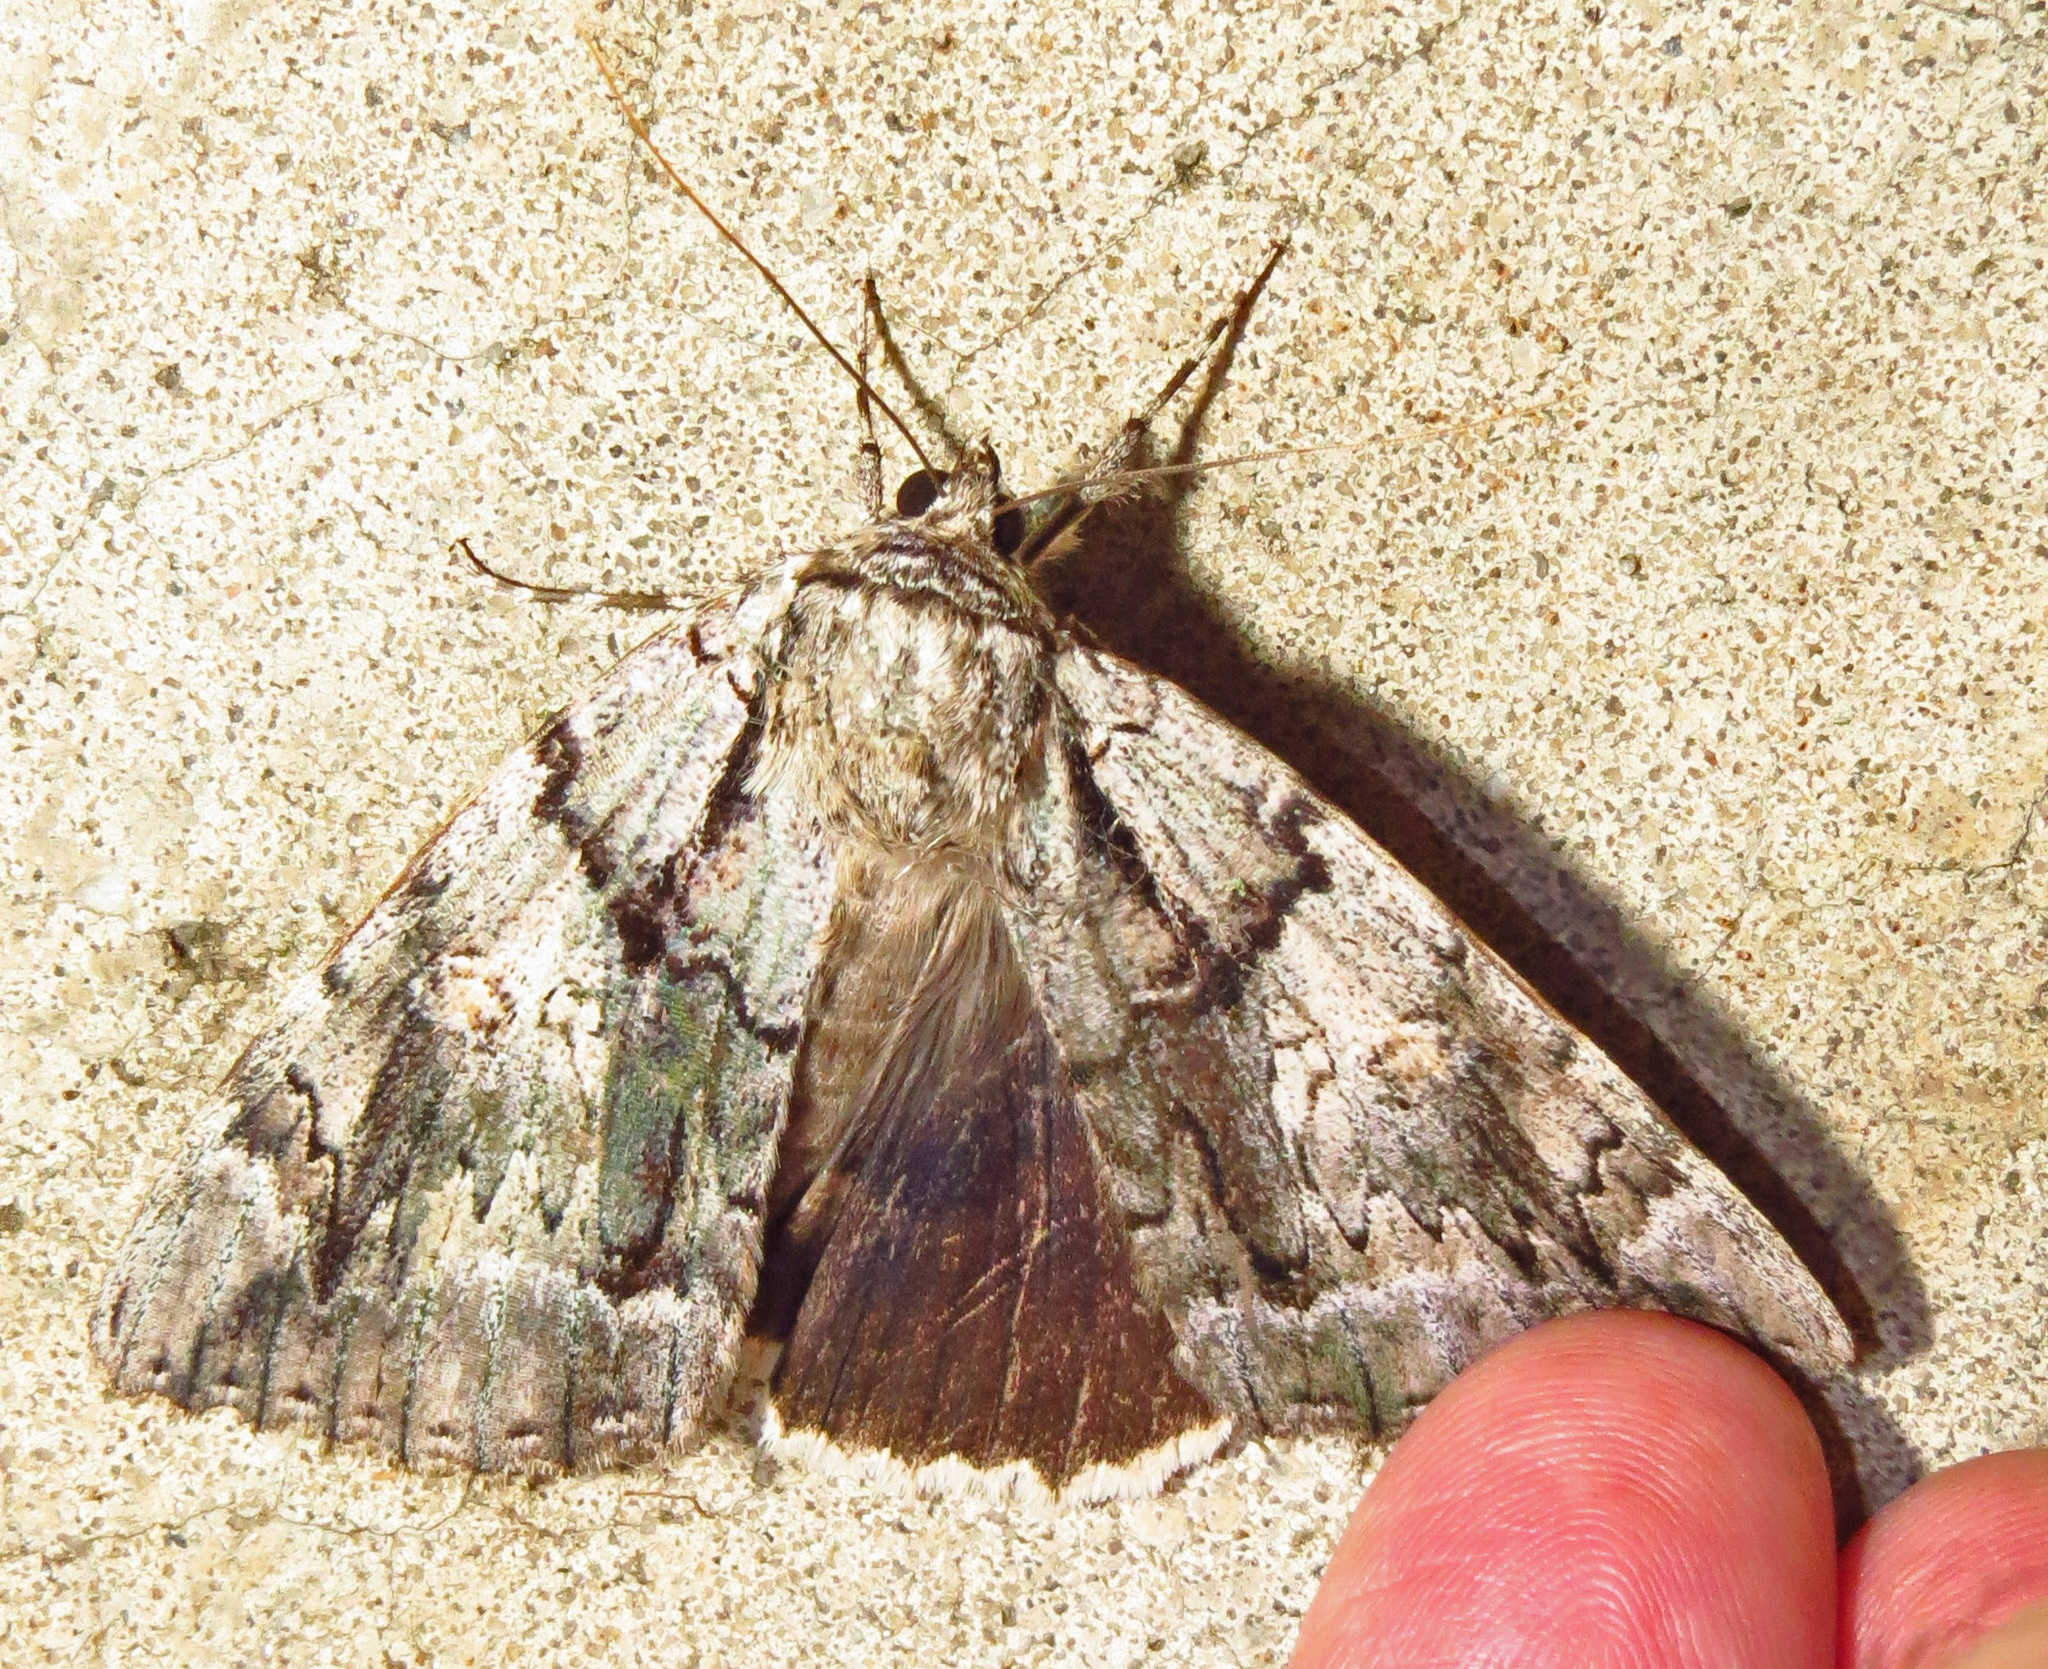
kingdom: Animalia
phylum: Arthropoda
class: Insecta
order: Lepidoptera
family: Erebidae
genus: Catocala
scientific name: Catocala vidua
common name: The widow
